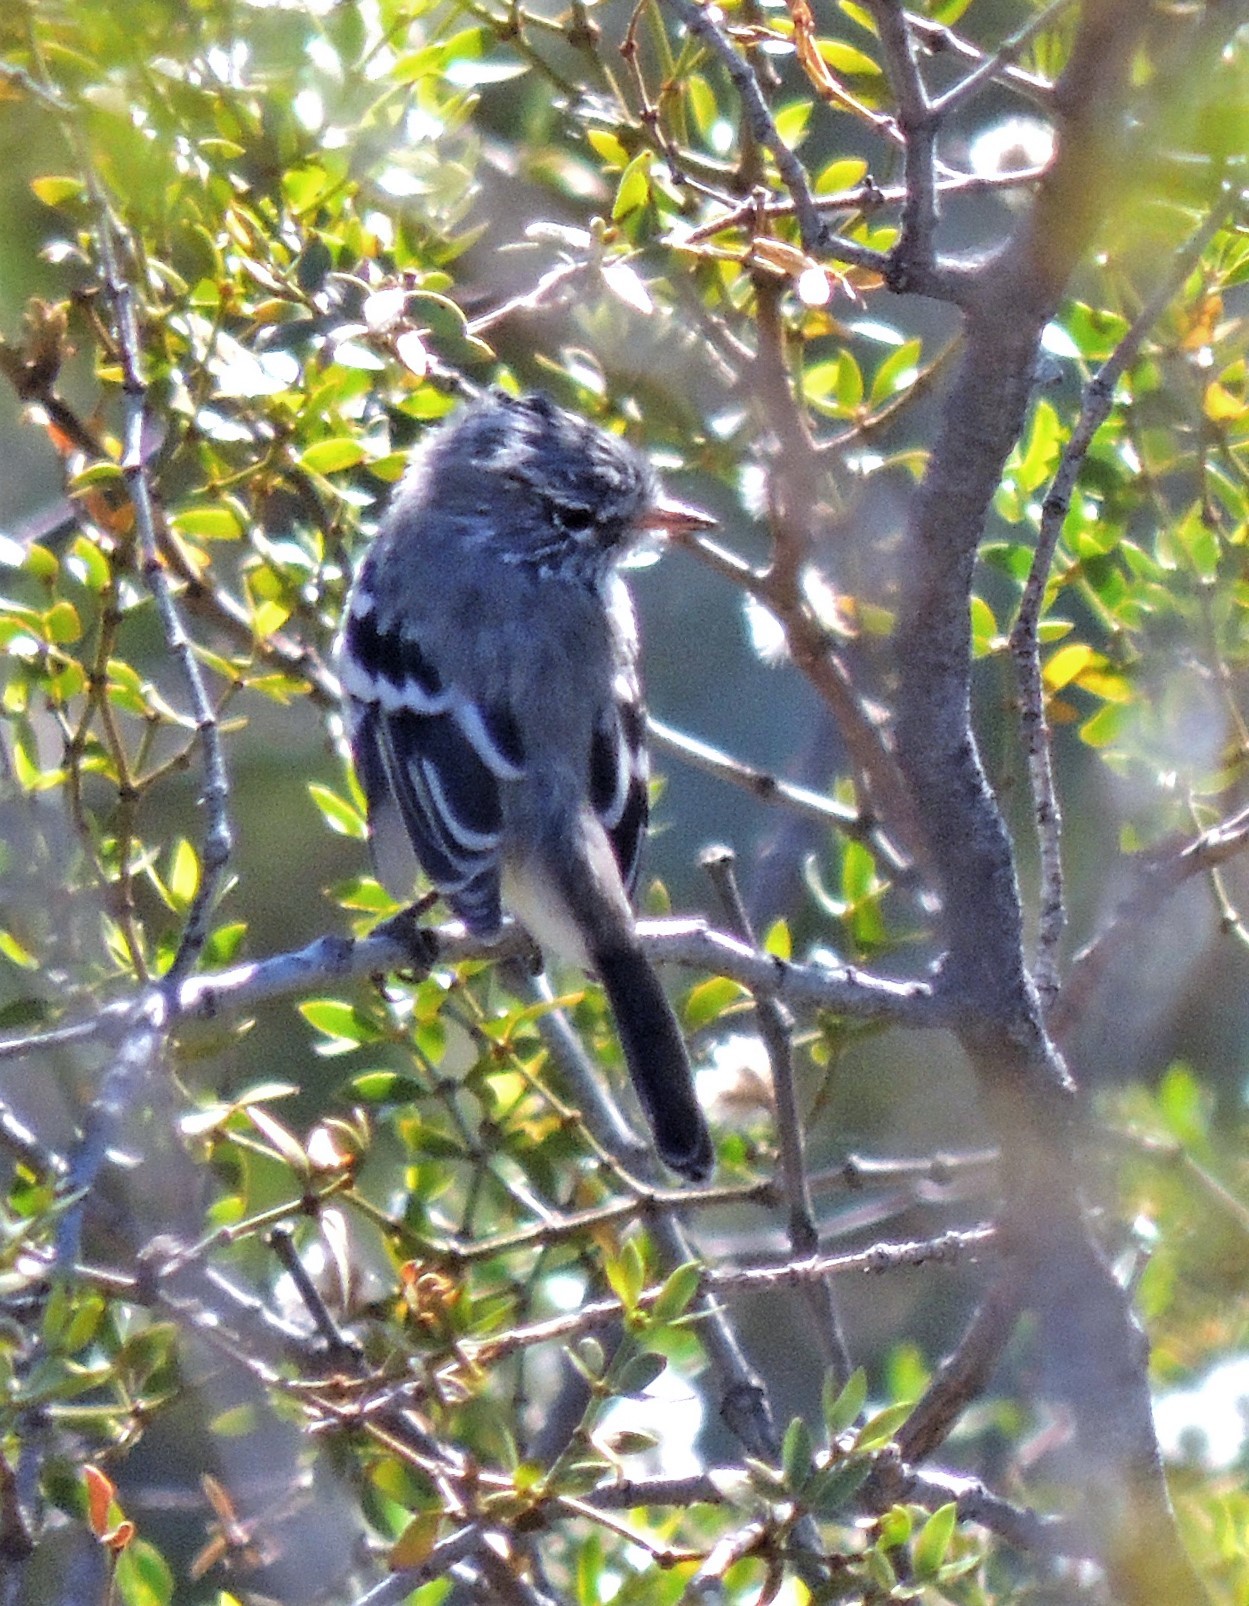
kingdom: Animalia
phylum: Chordata
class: Aves
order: Passeriformes
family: Tyrannidae
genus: Anairetes
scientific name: Anairetes flavirostris
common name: Yellow-billed tit-tyrant
